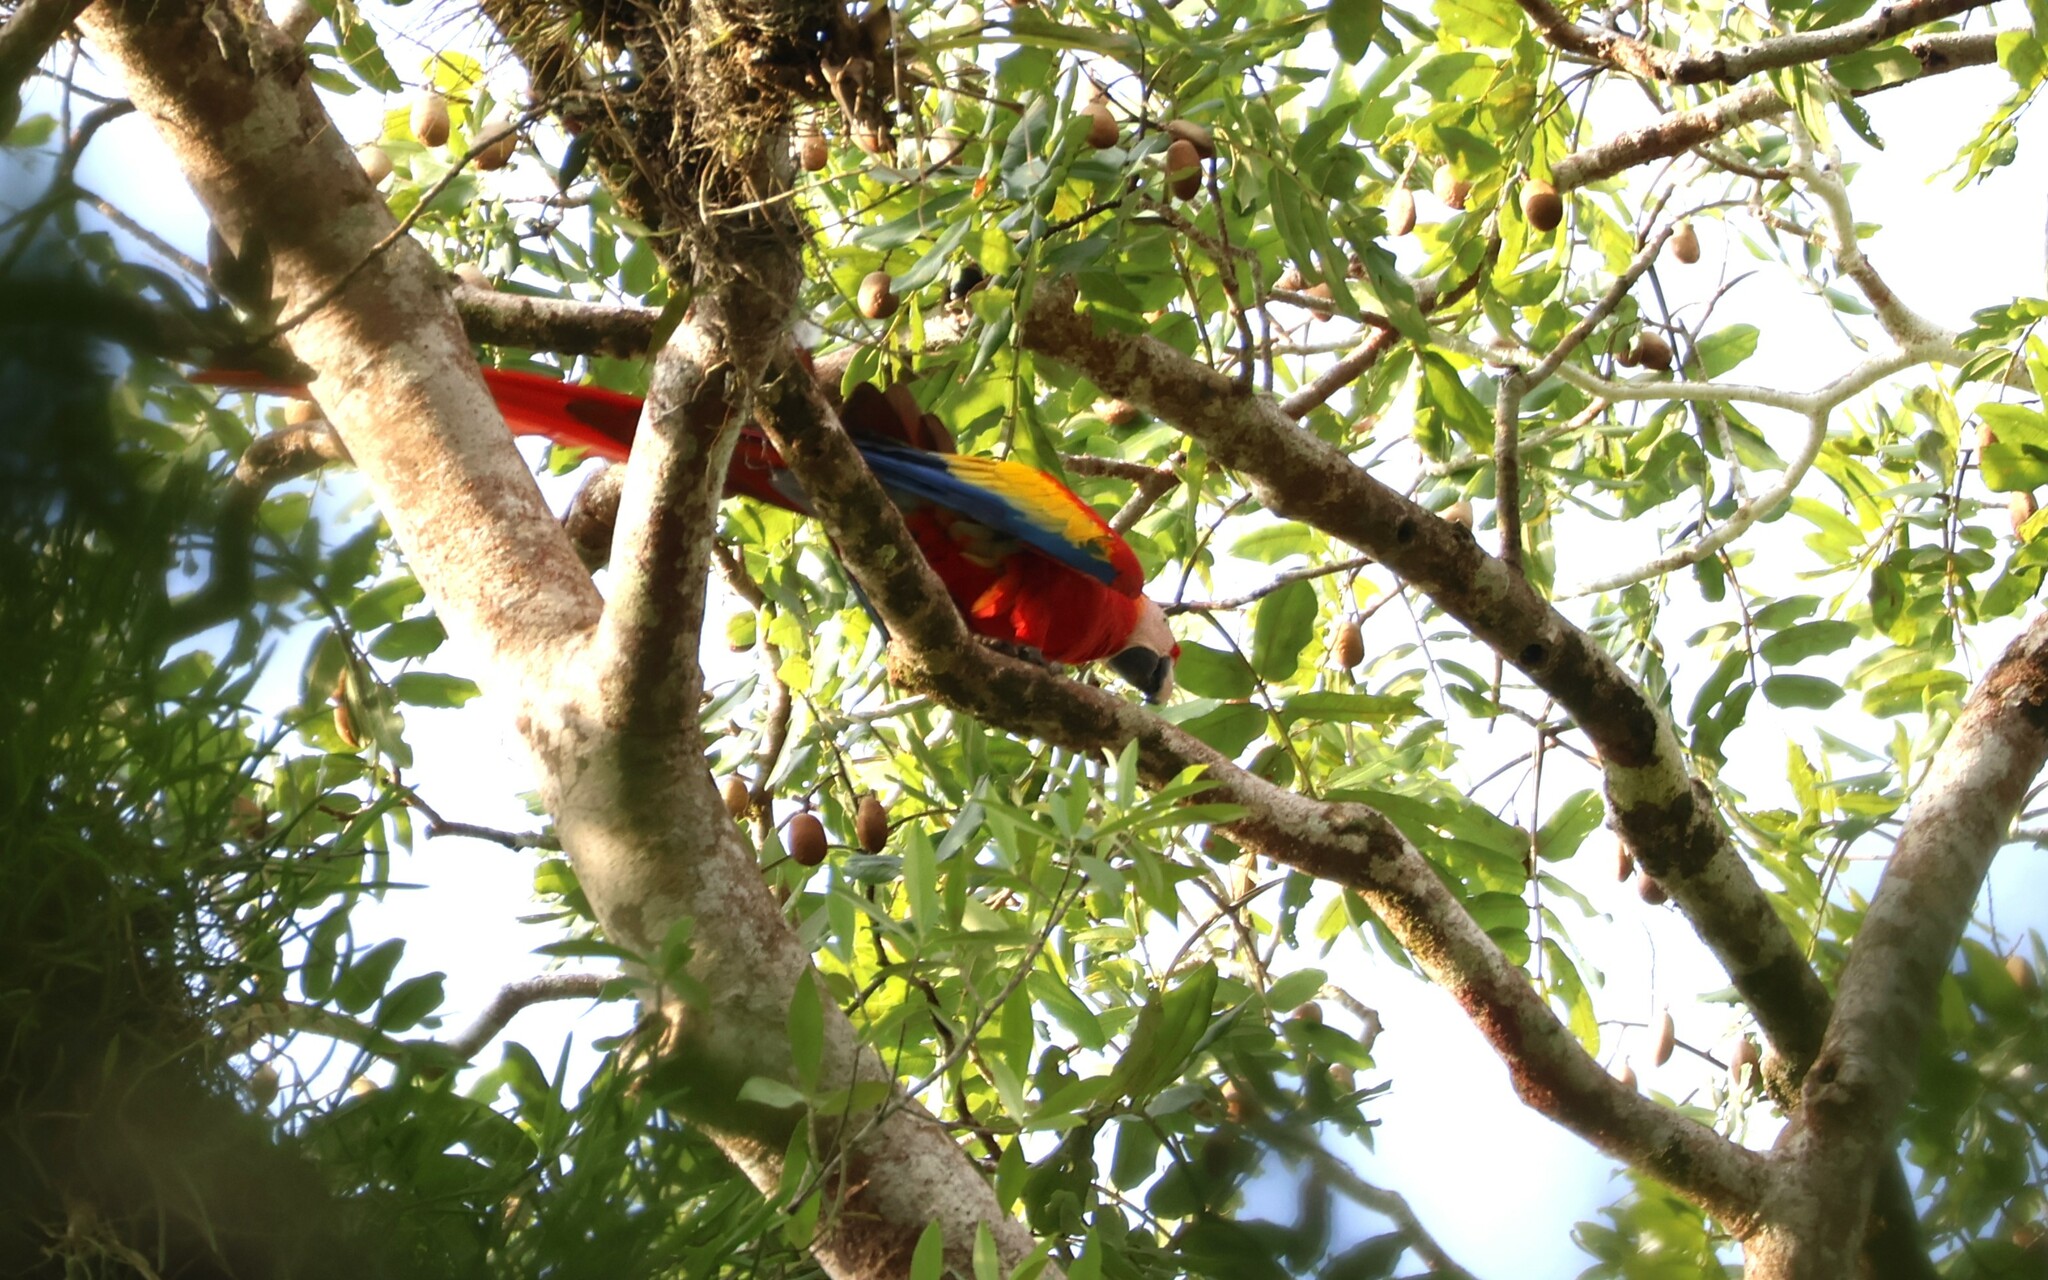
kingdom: Animalia
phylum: Chordata
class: Aves
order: Psittaciformes
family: Psittacidae
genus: Ara
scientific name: Ara macao
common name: Scarlet macaw
